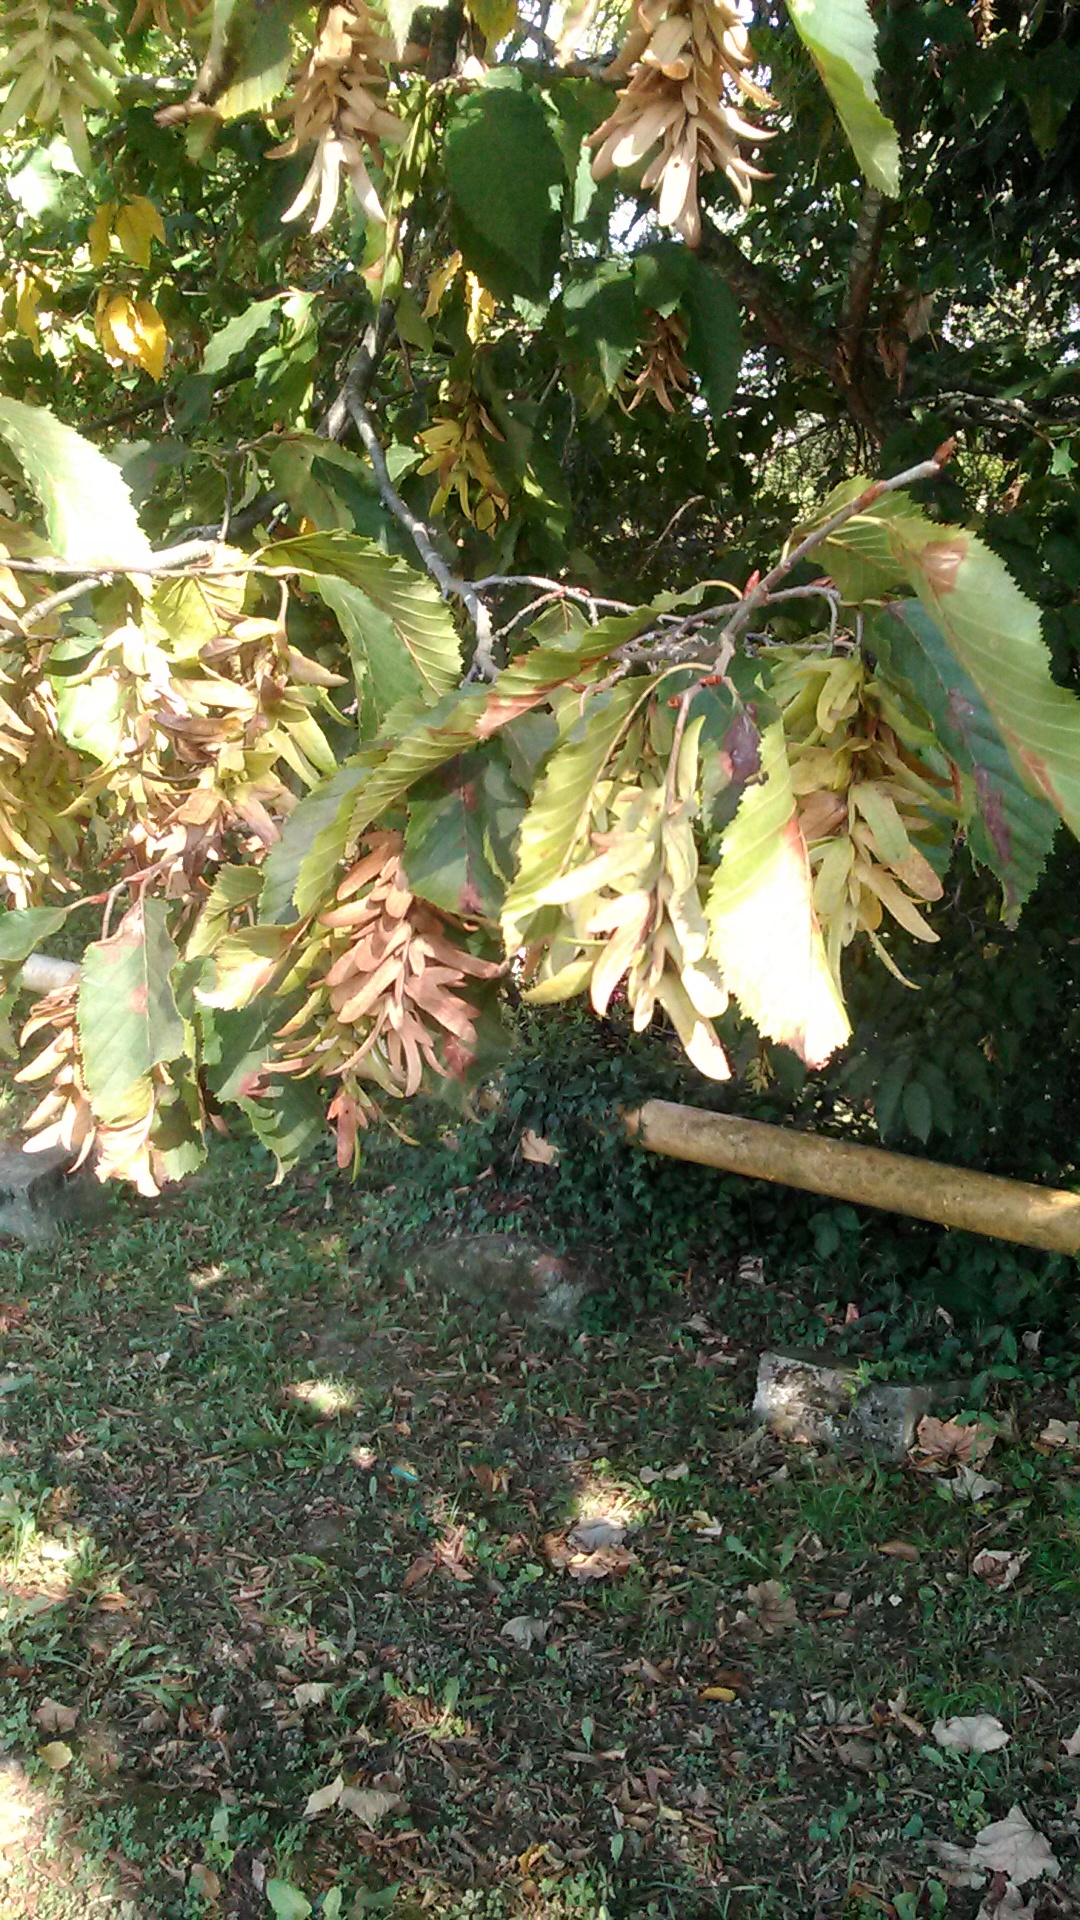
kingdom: Plantae
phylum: Tracheophyta
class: Magnoliopsida
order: Fagales
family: Betulaceae
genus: Carpinus
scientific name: Carpinus betulus
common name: Hornbeam
